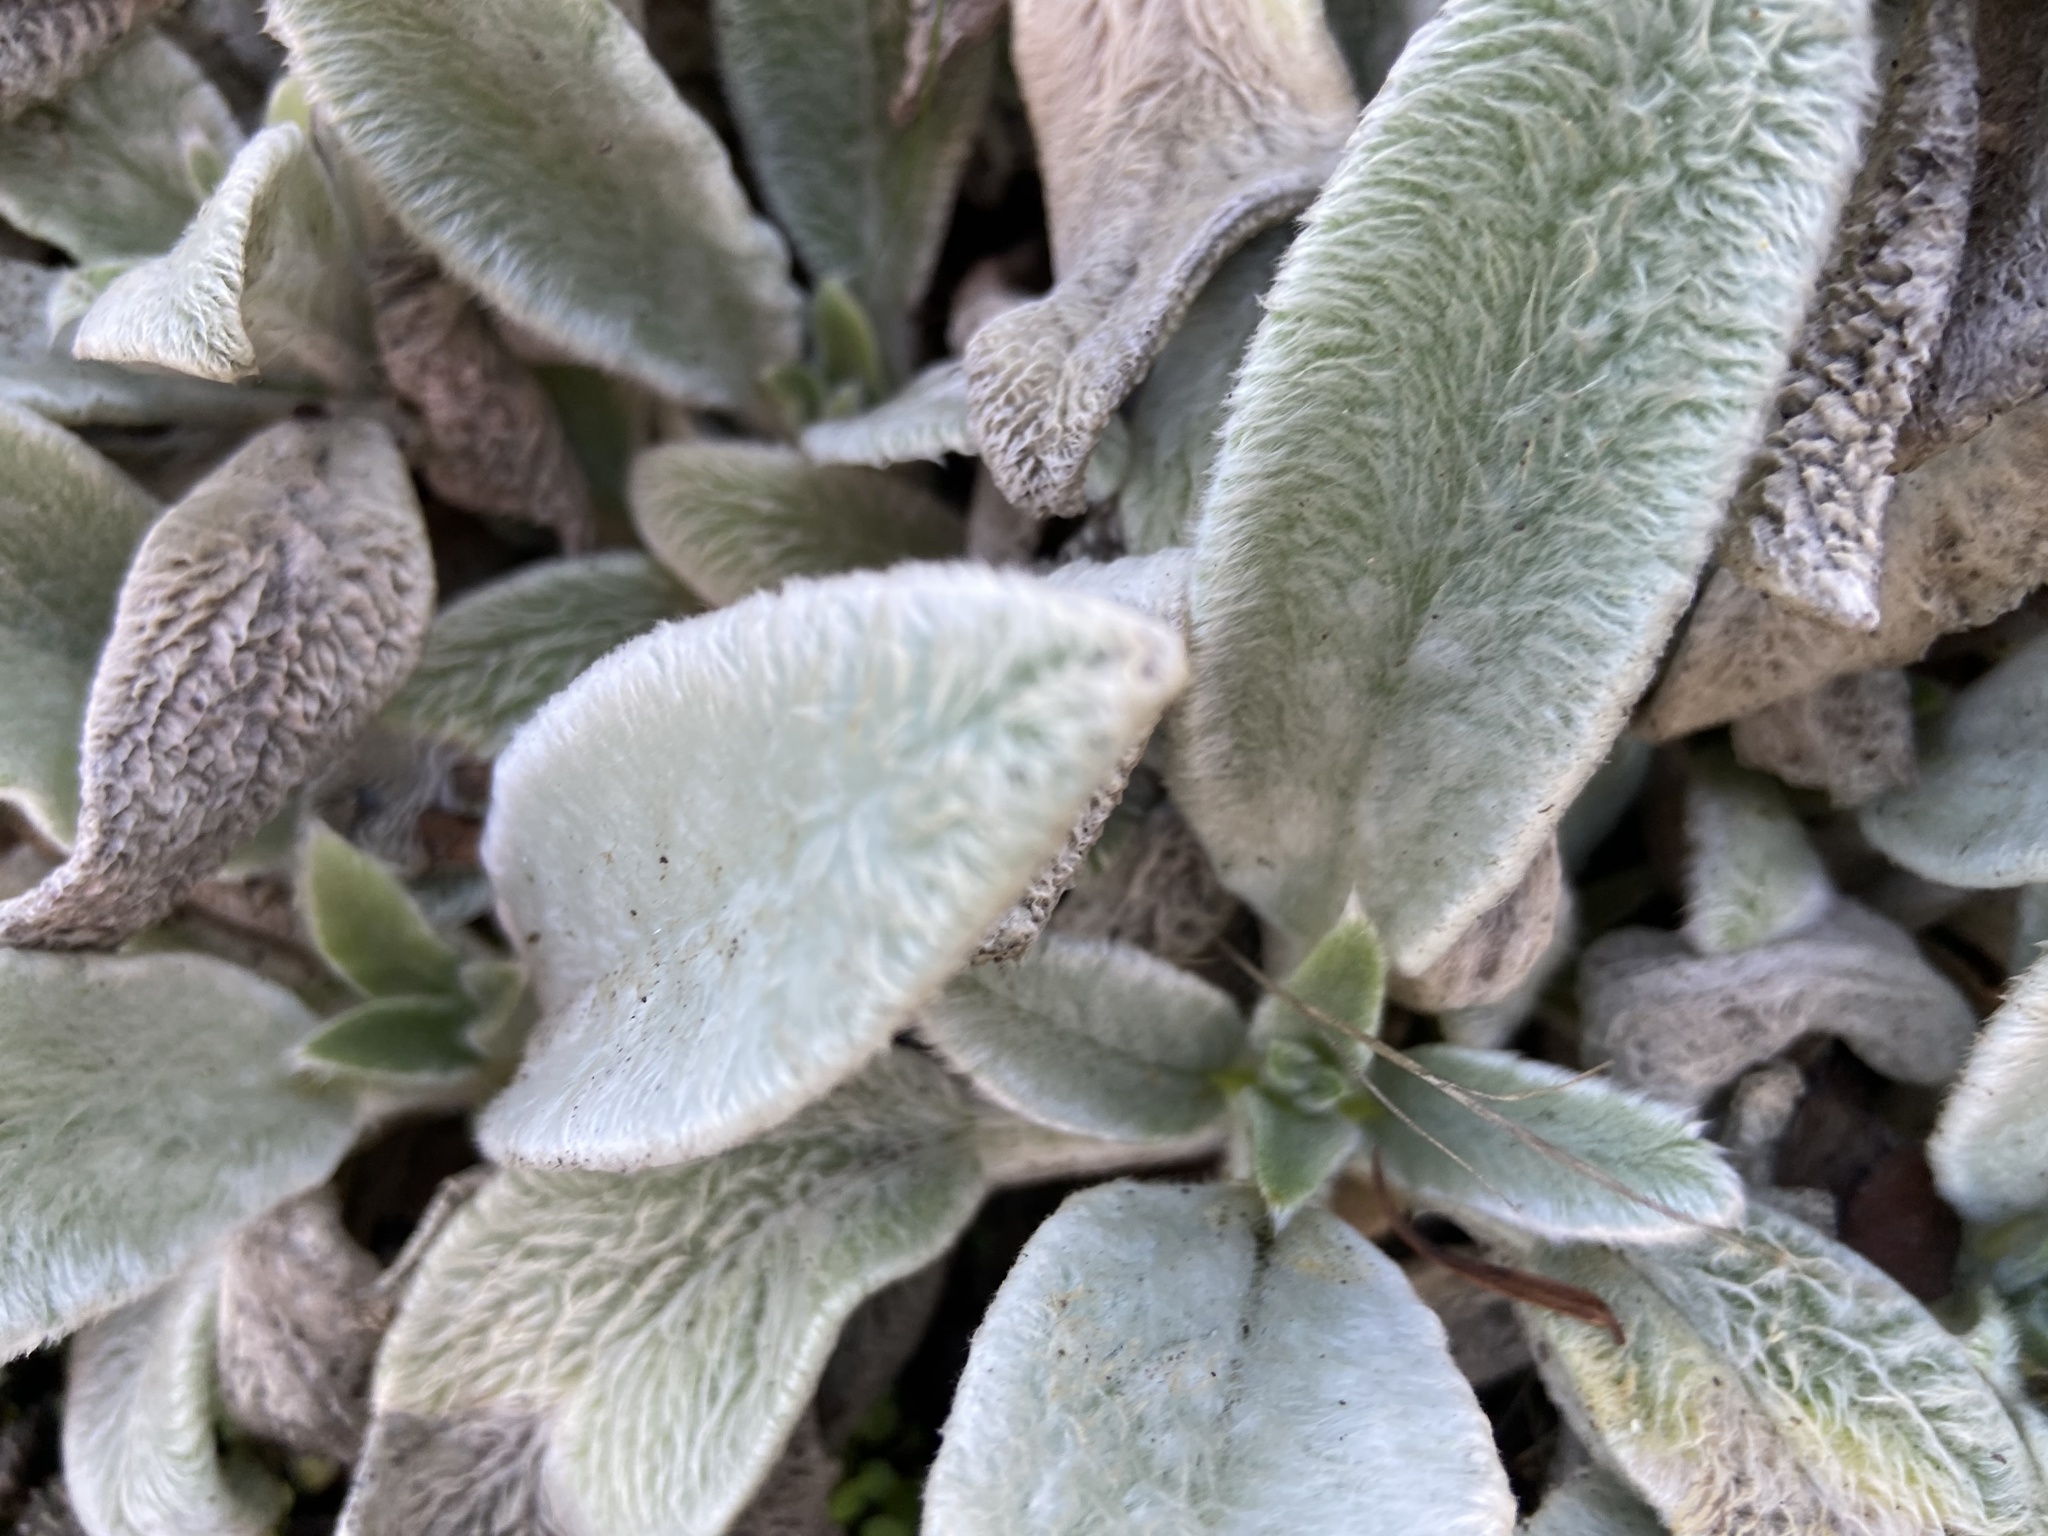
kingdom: Plantae
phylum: Tracheophyta
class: Magnoliopsida
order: Lamiales
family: Lamiaceae
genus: Stachys
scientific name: Stachys byzantina
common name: Lamb's-ear
